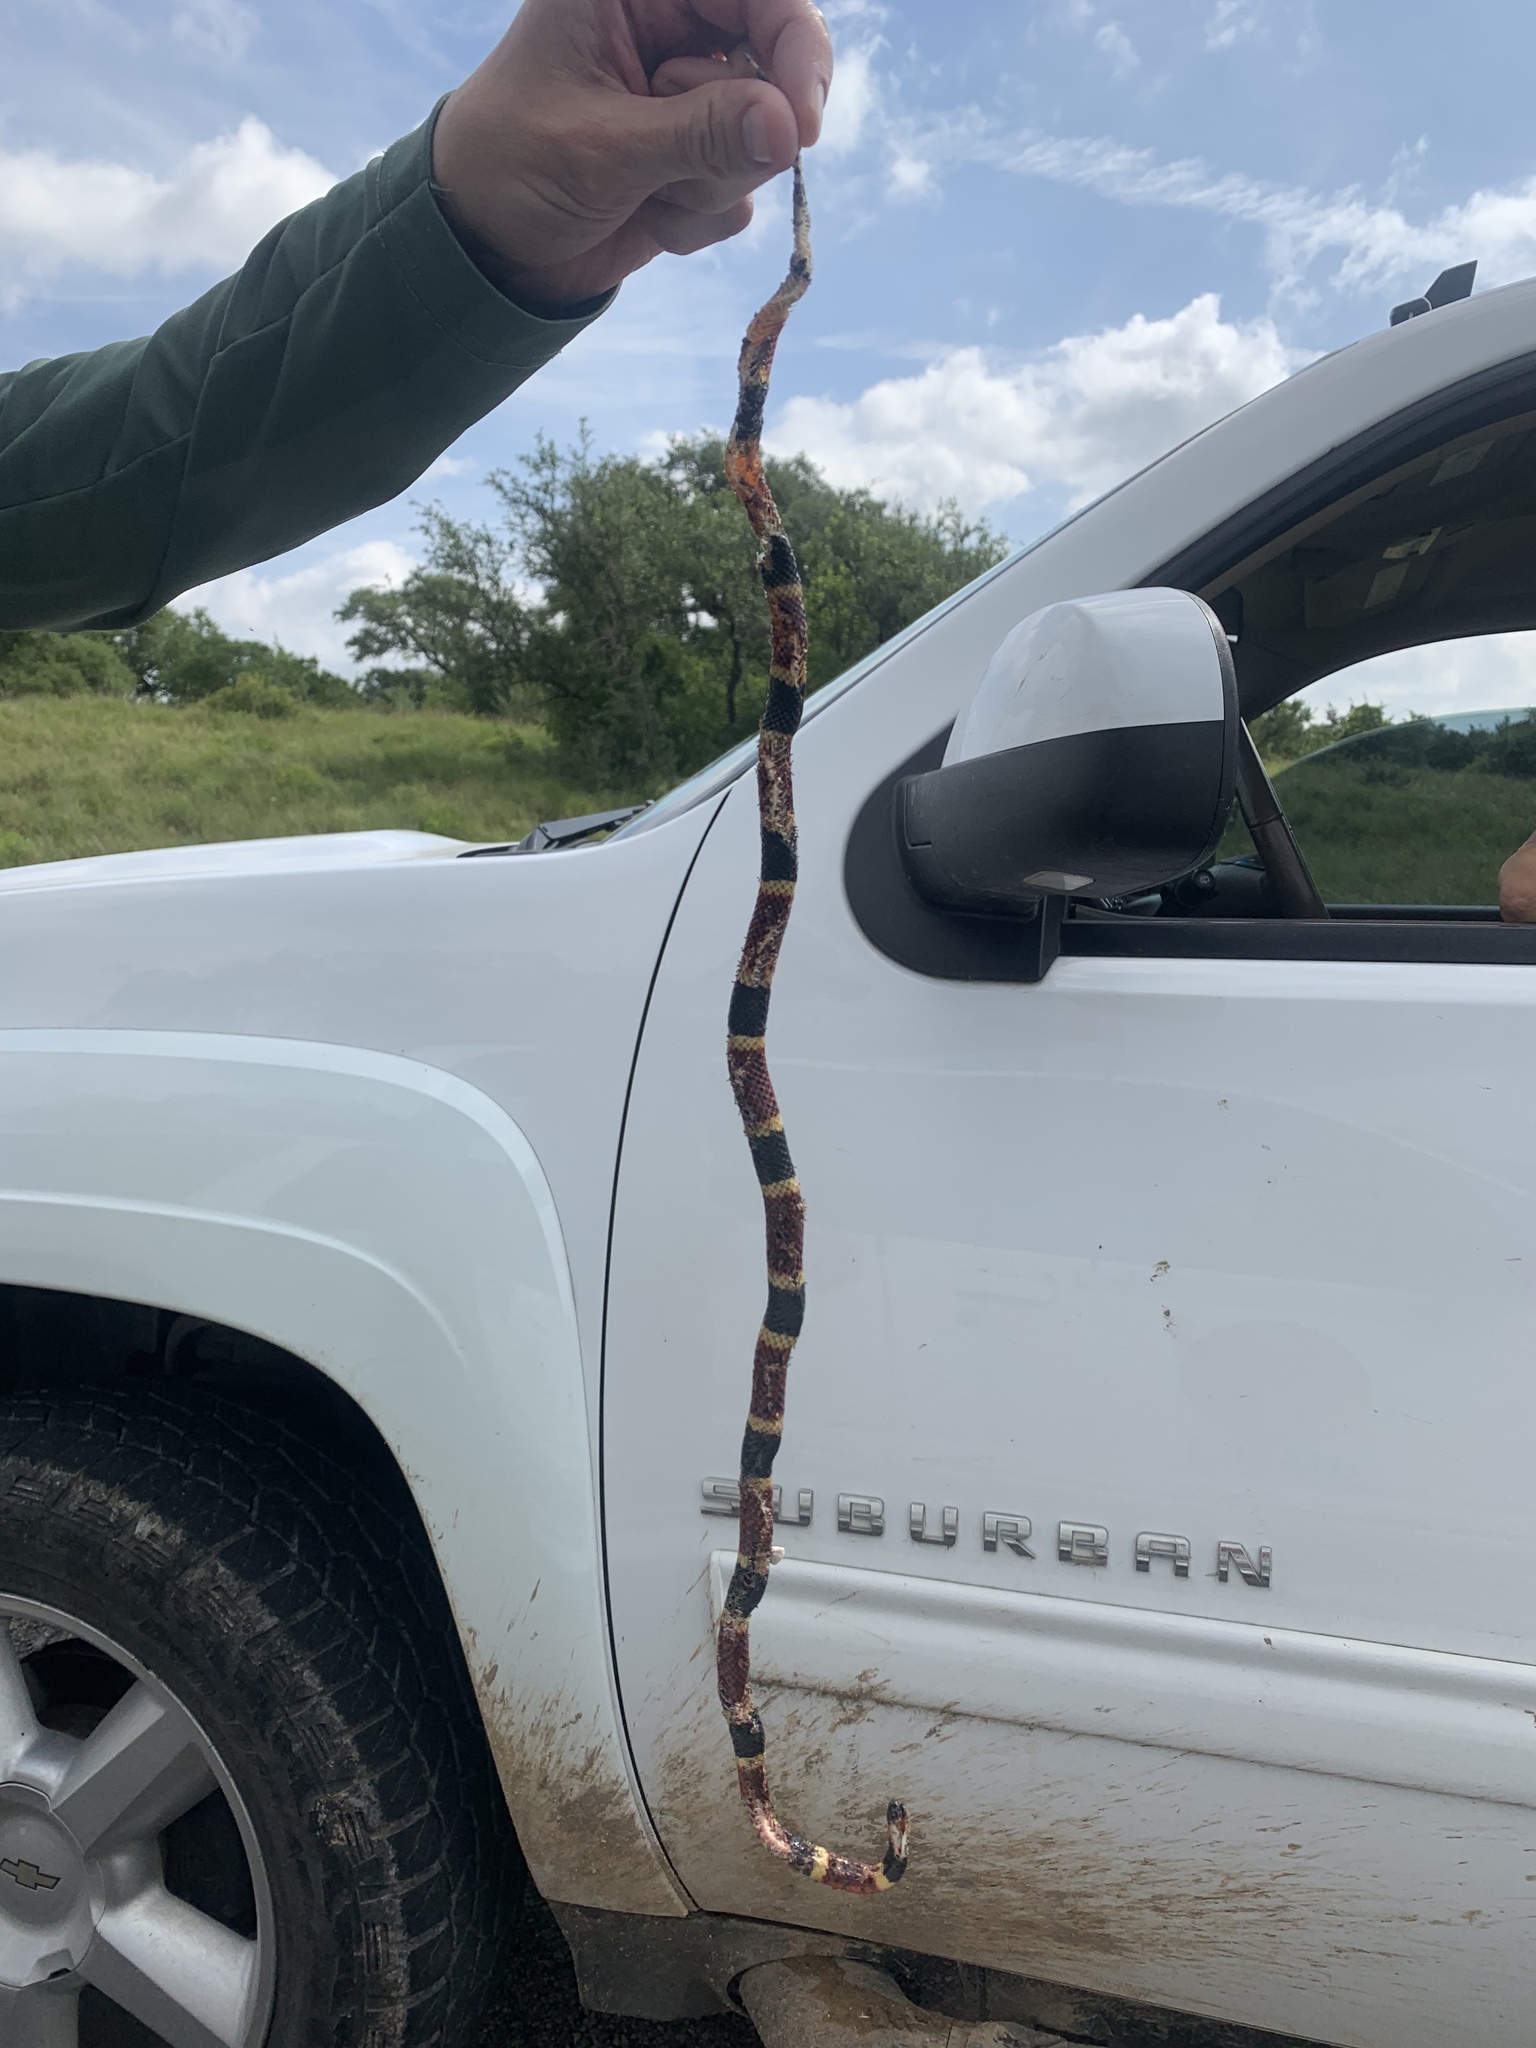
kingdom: Animalia
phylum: Chordata
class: Squamata
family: Elapidae
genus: Micrurus
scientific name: Micrurus tener
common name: Texas coral snake
